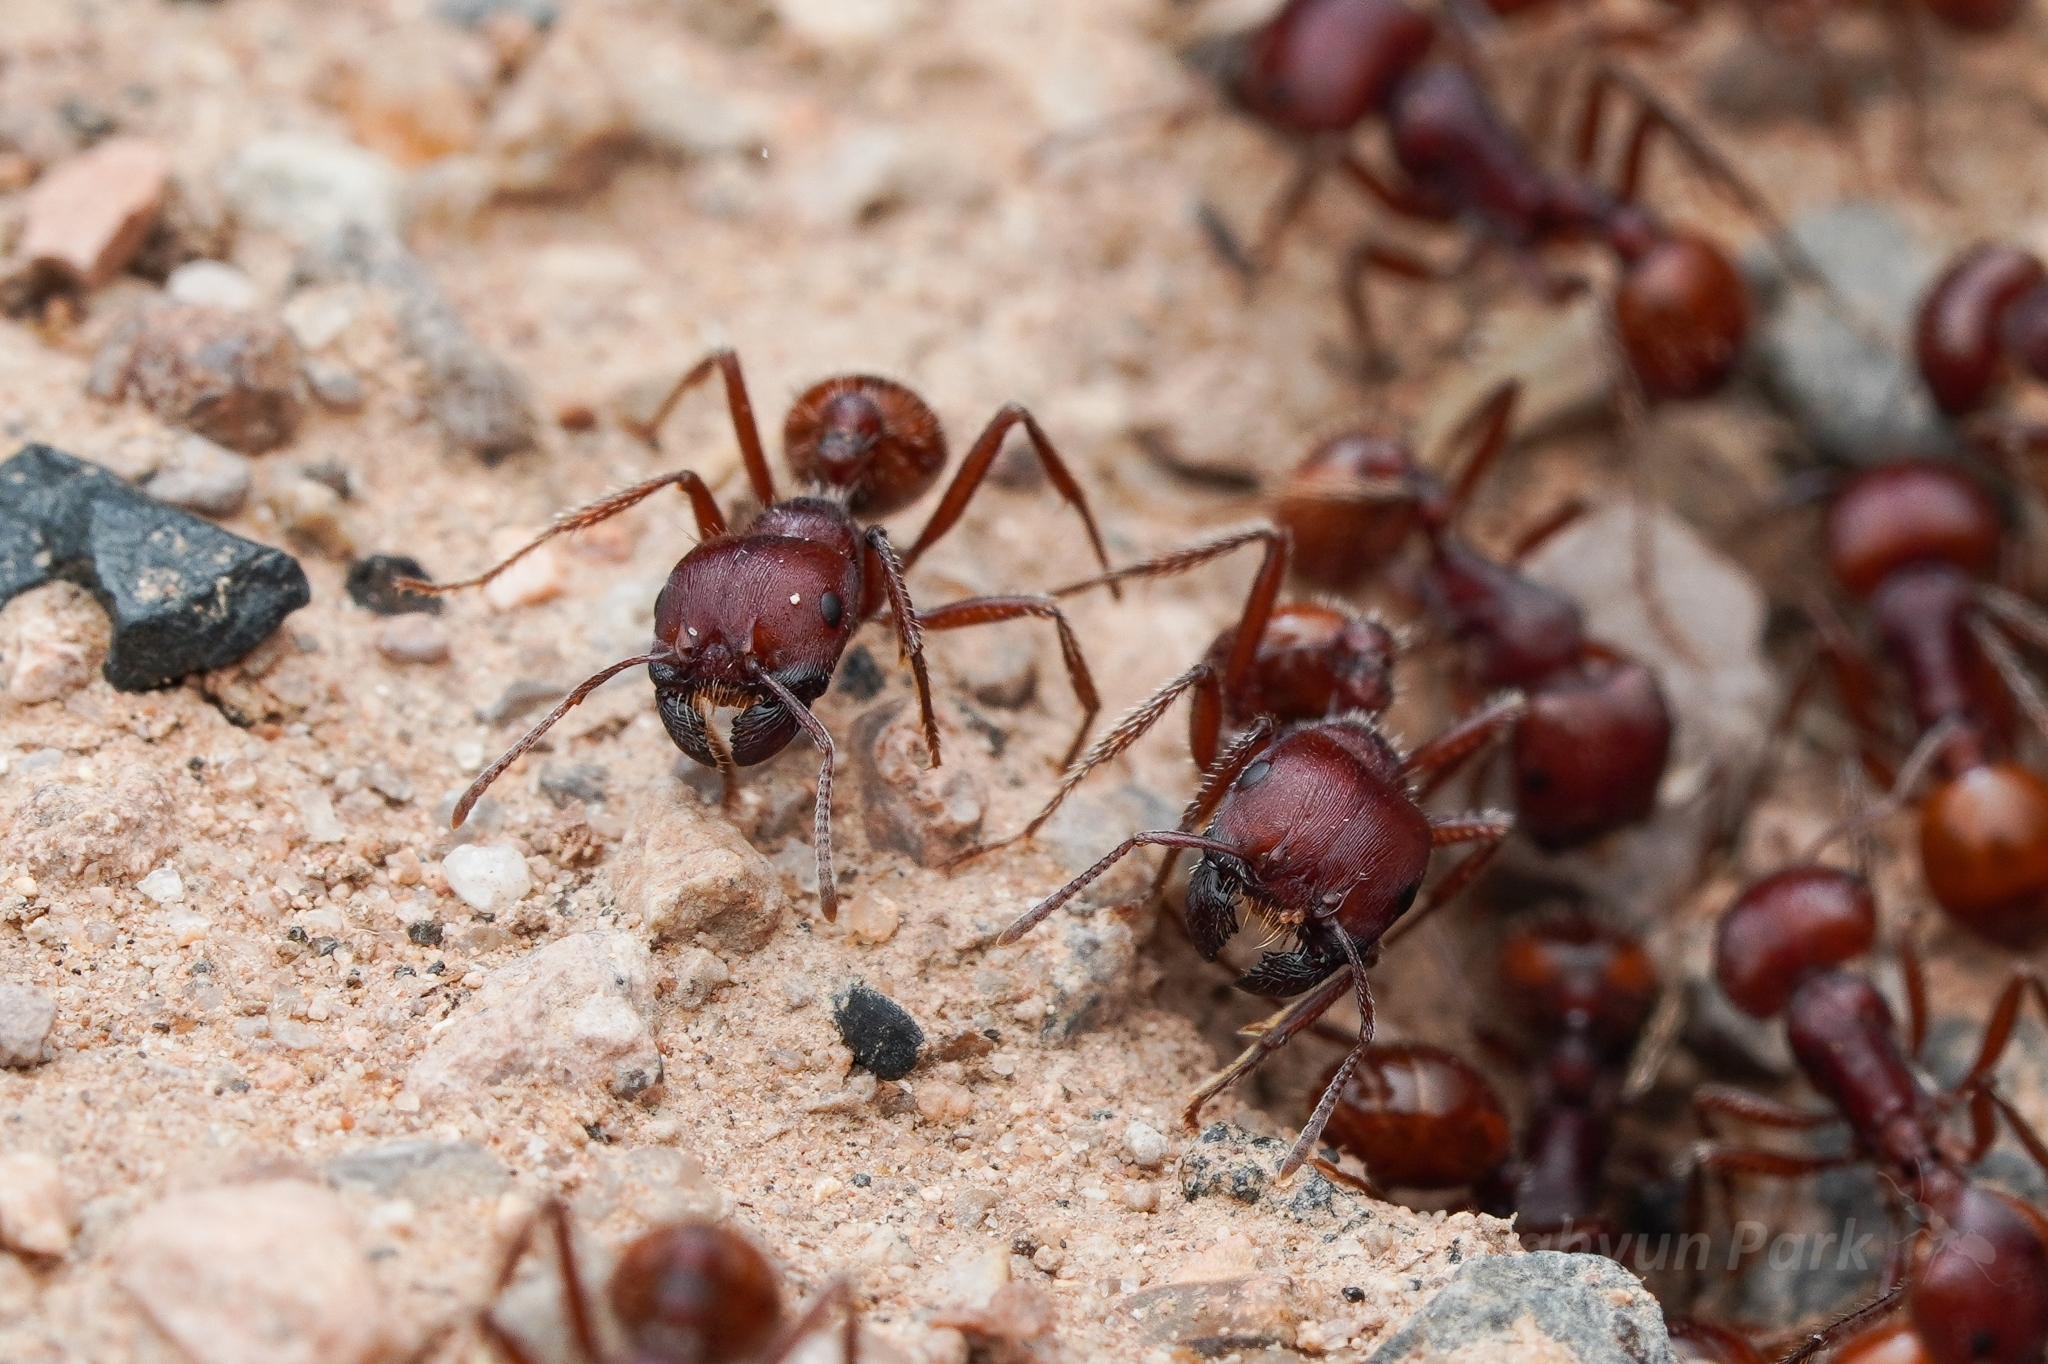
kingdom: Animalia
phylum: Arthropoda
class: Insecta
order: Hymenoptera
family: Formicidae
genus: Pogonomyrmex
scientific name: Pogonomyrmex barbatus
